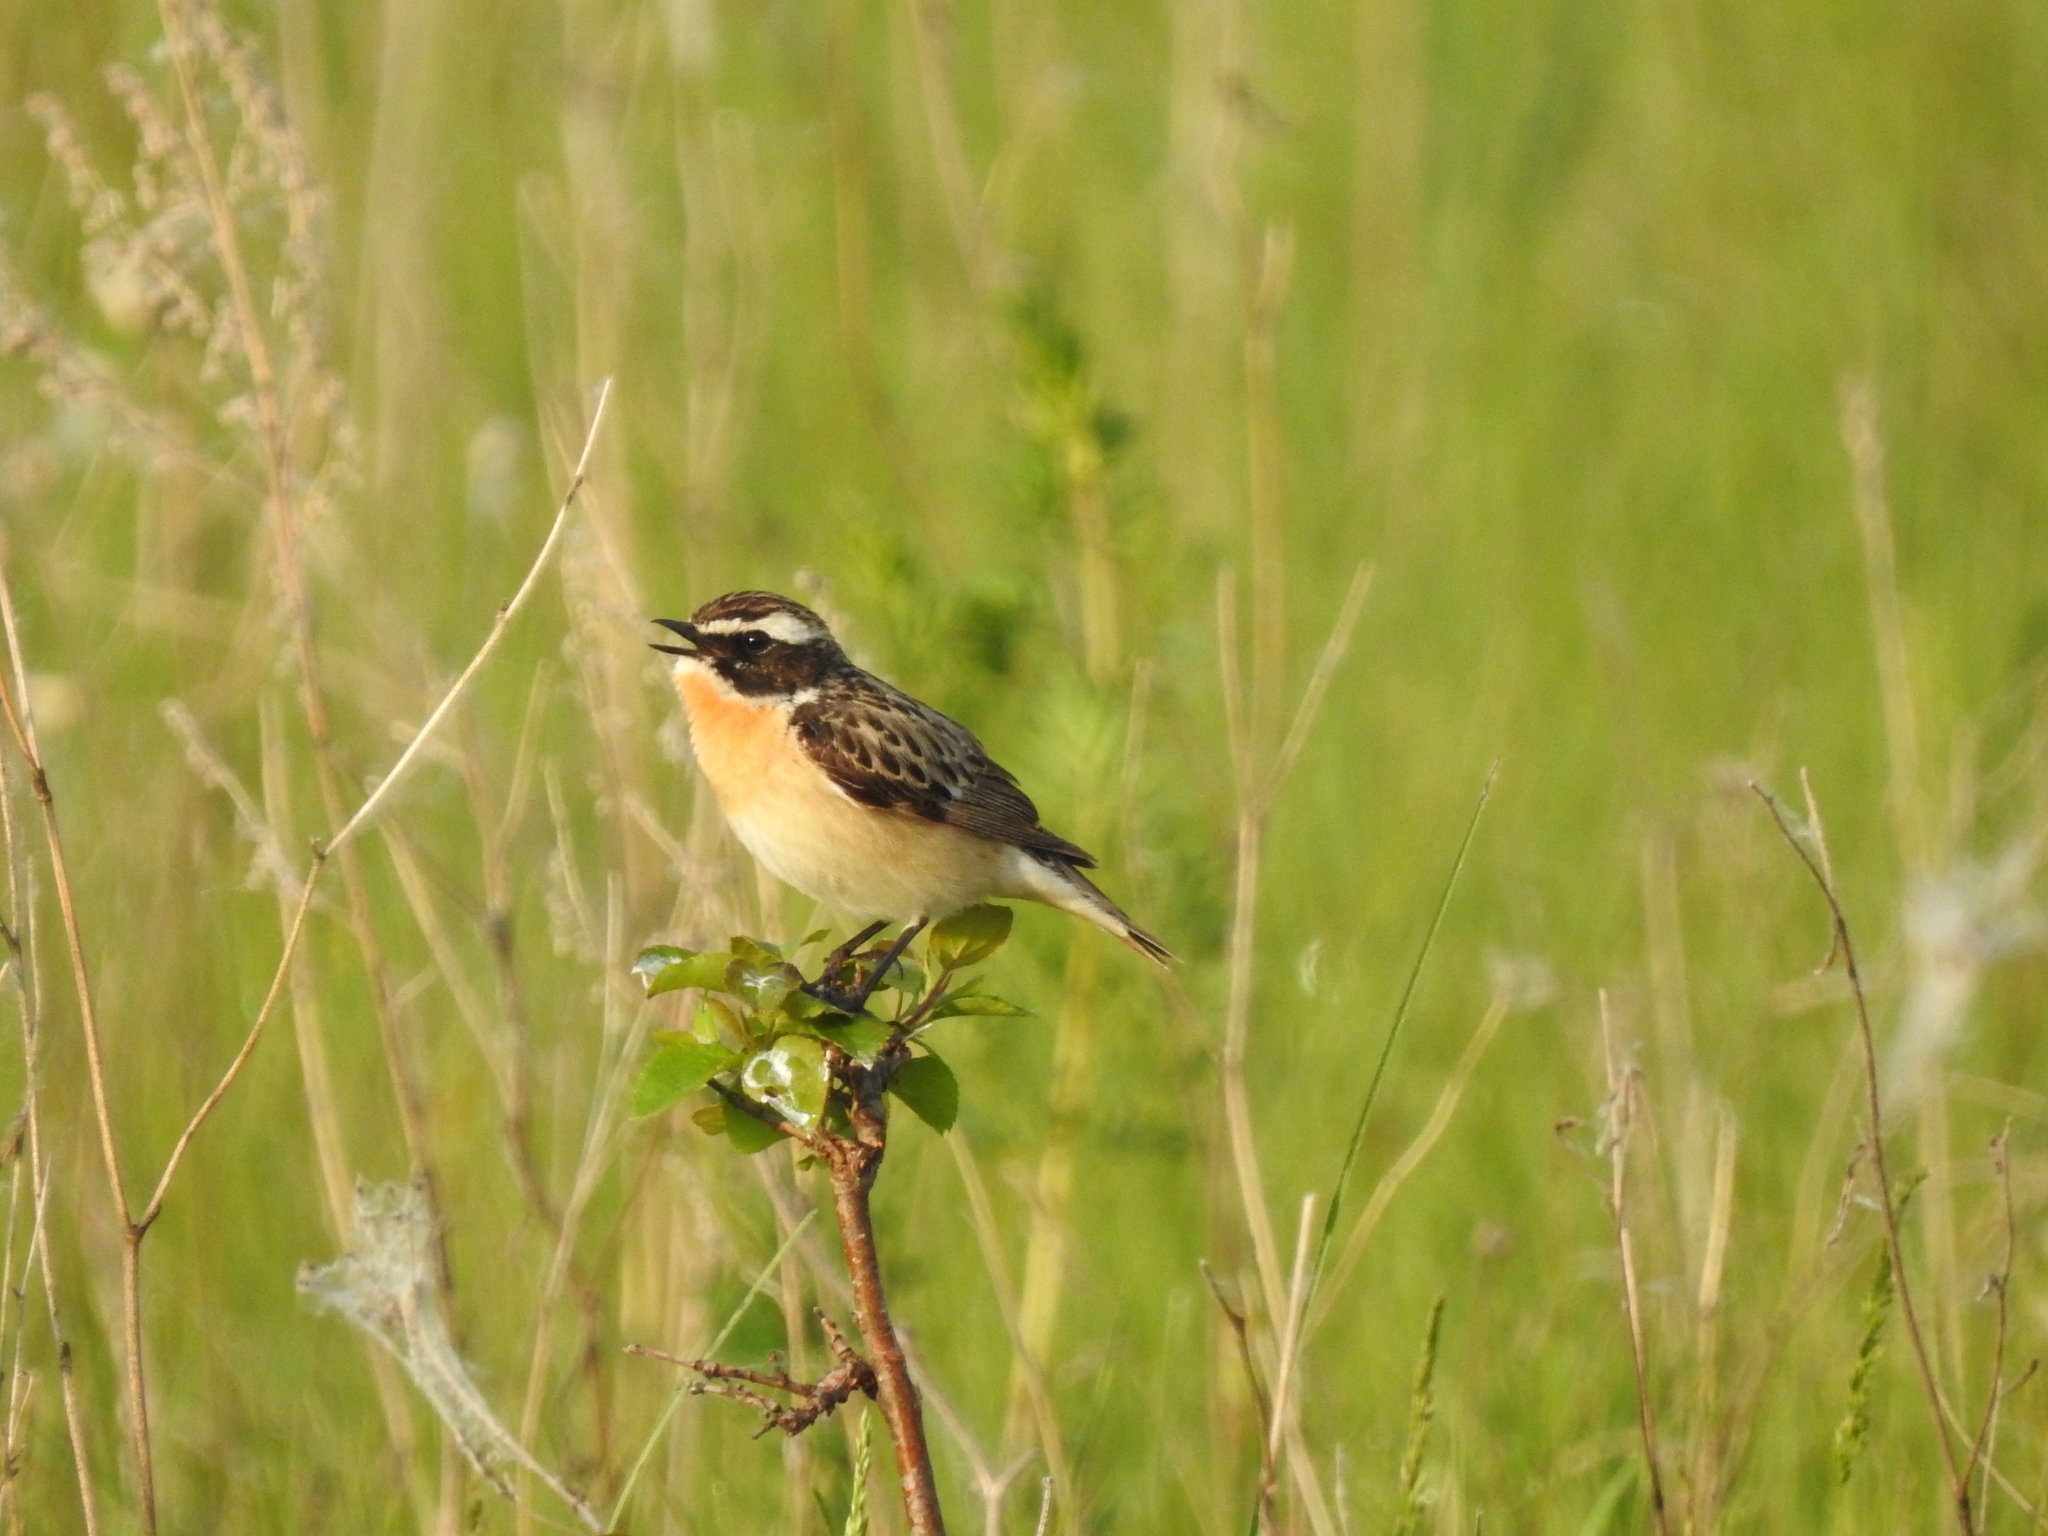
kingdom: Animalia
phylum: Chordata
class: Aves
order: Passeriformes
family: Muscicapidae
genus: Saxicola
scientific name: Saxicola rubetra
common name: Whinchat
